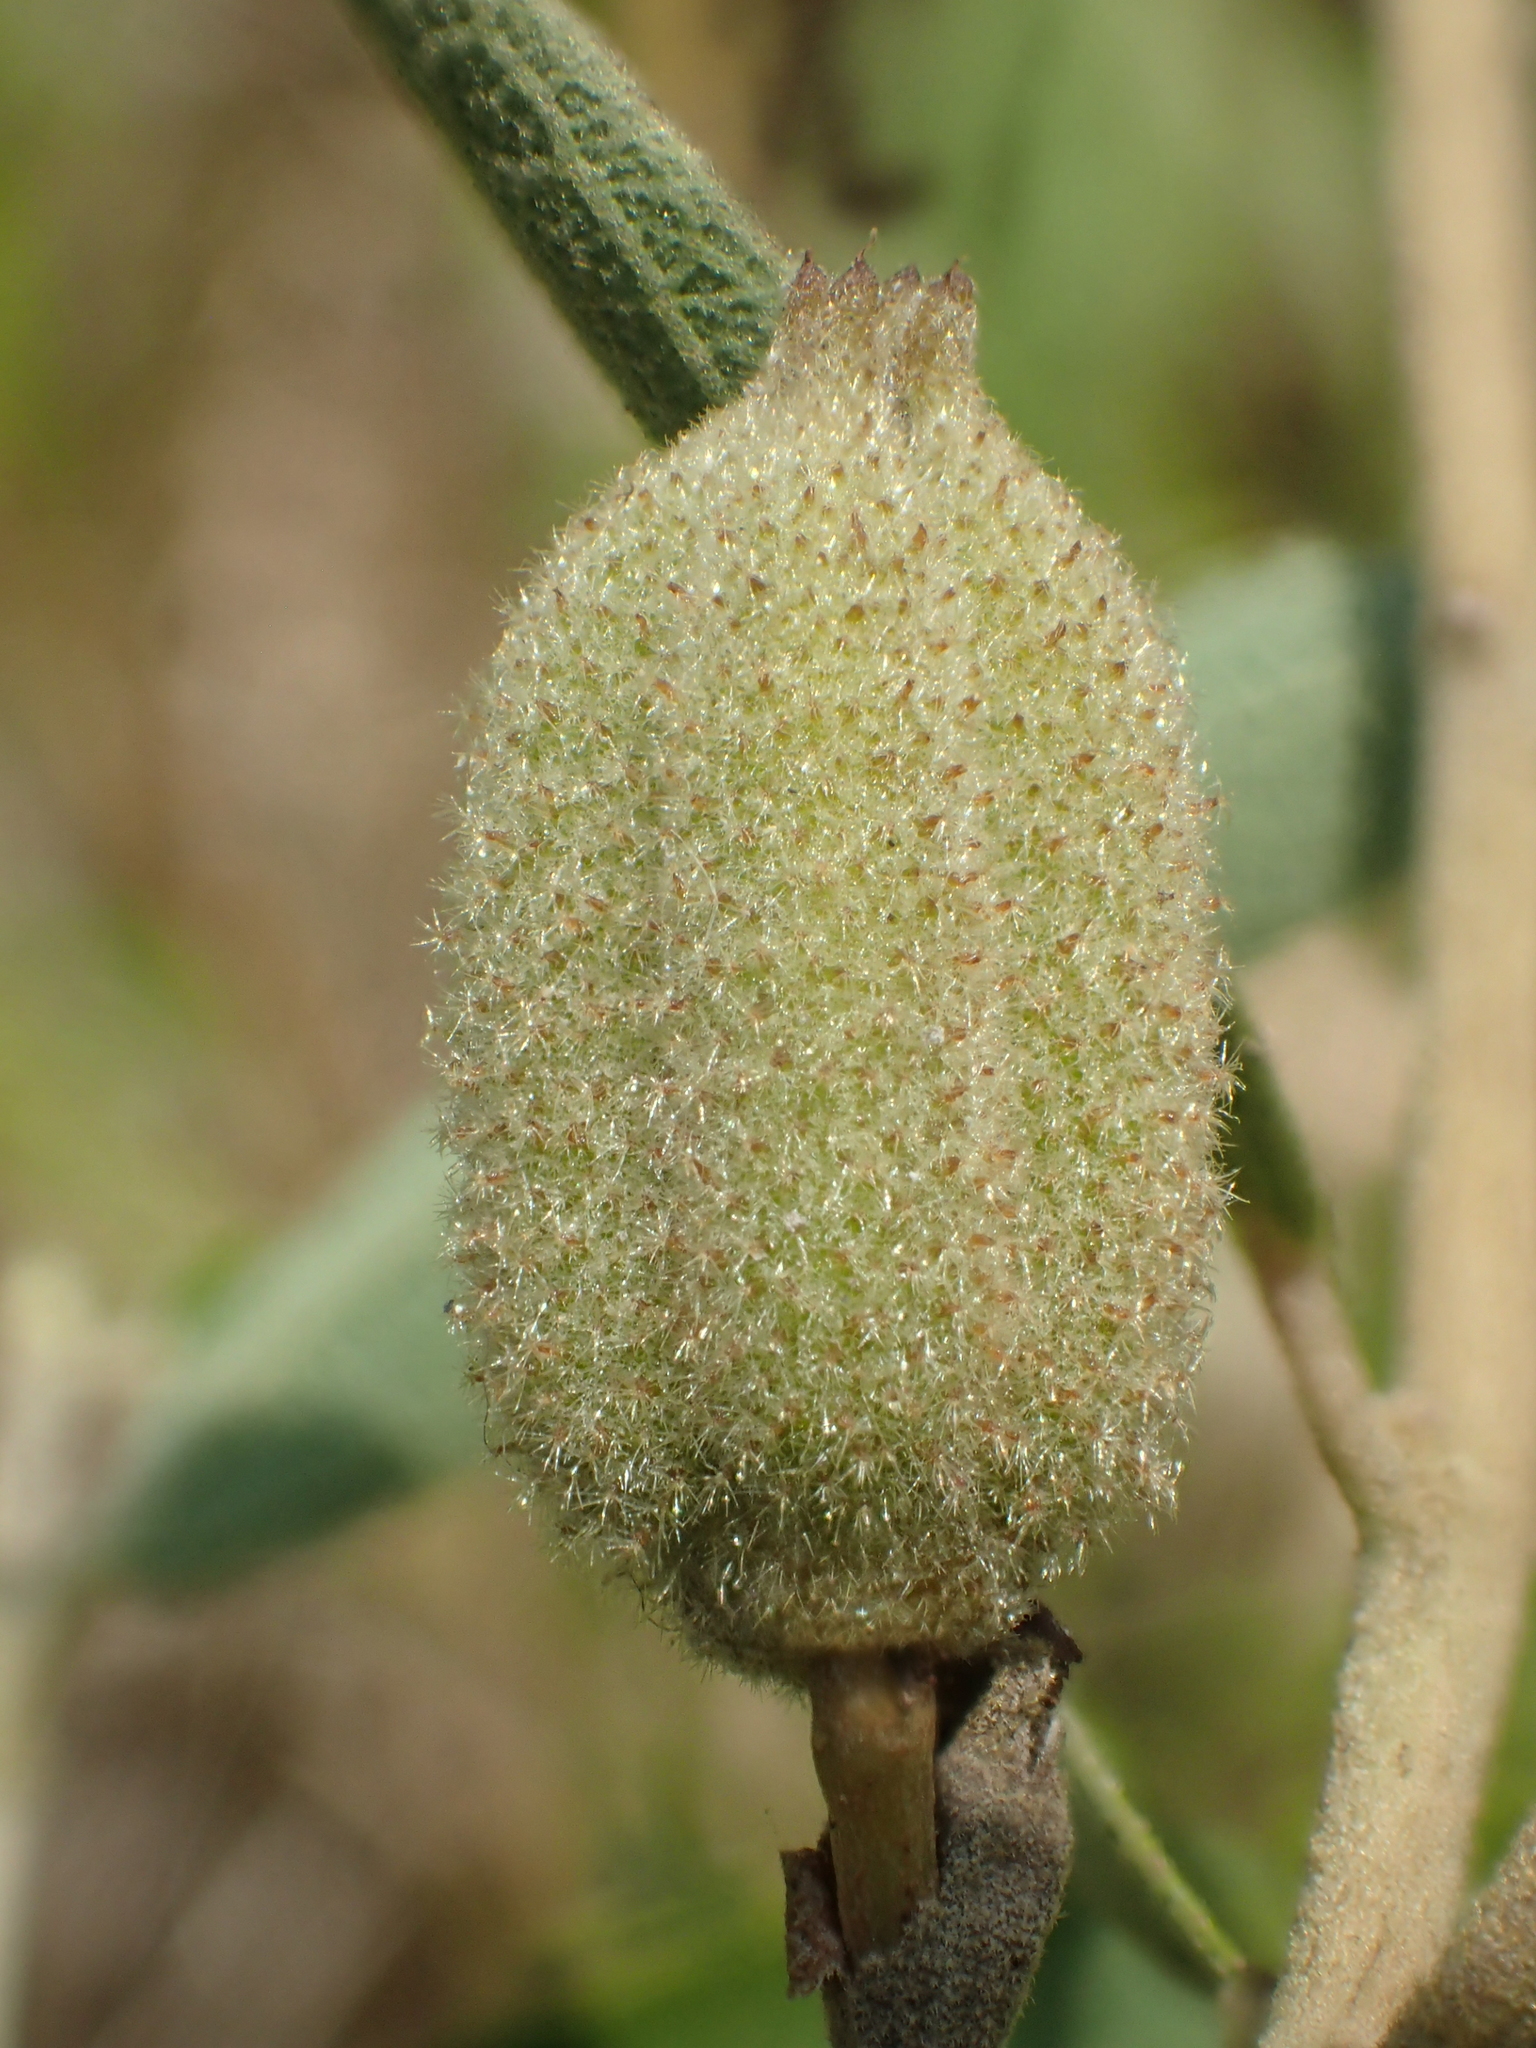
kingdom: Plantae
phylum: Tracheophyta
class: Magnoliopsida
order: Malvales
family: Malvaceae
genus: Helicteres
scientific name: Helicteres angustifolia
